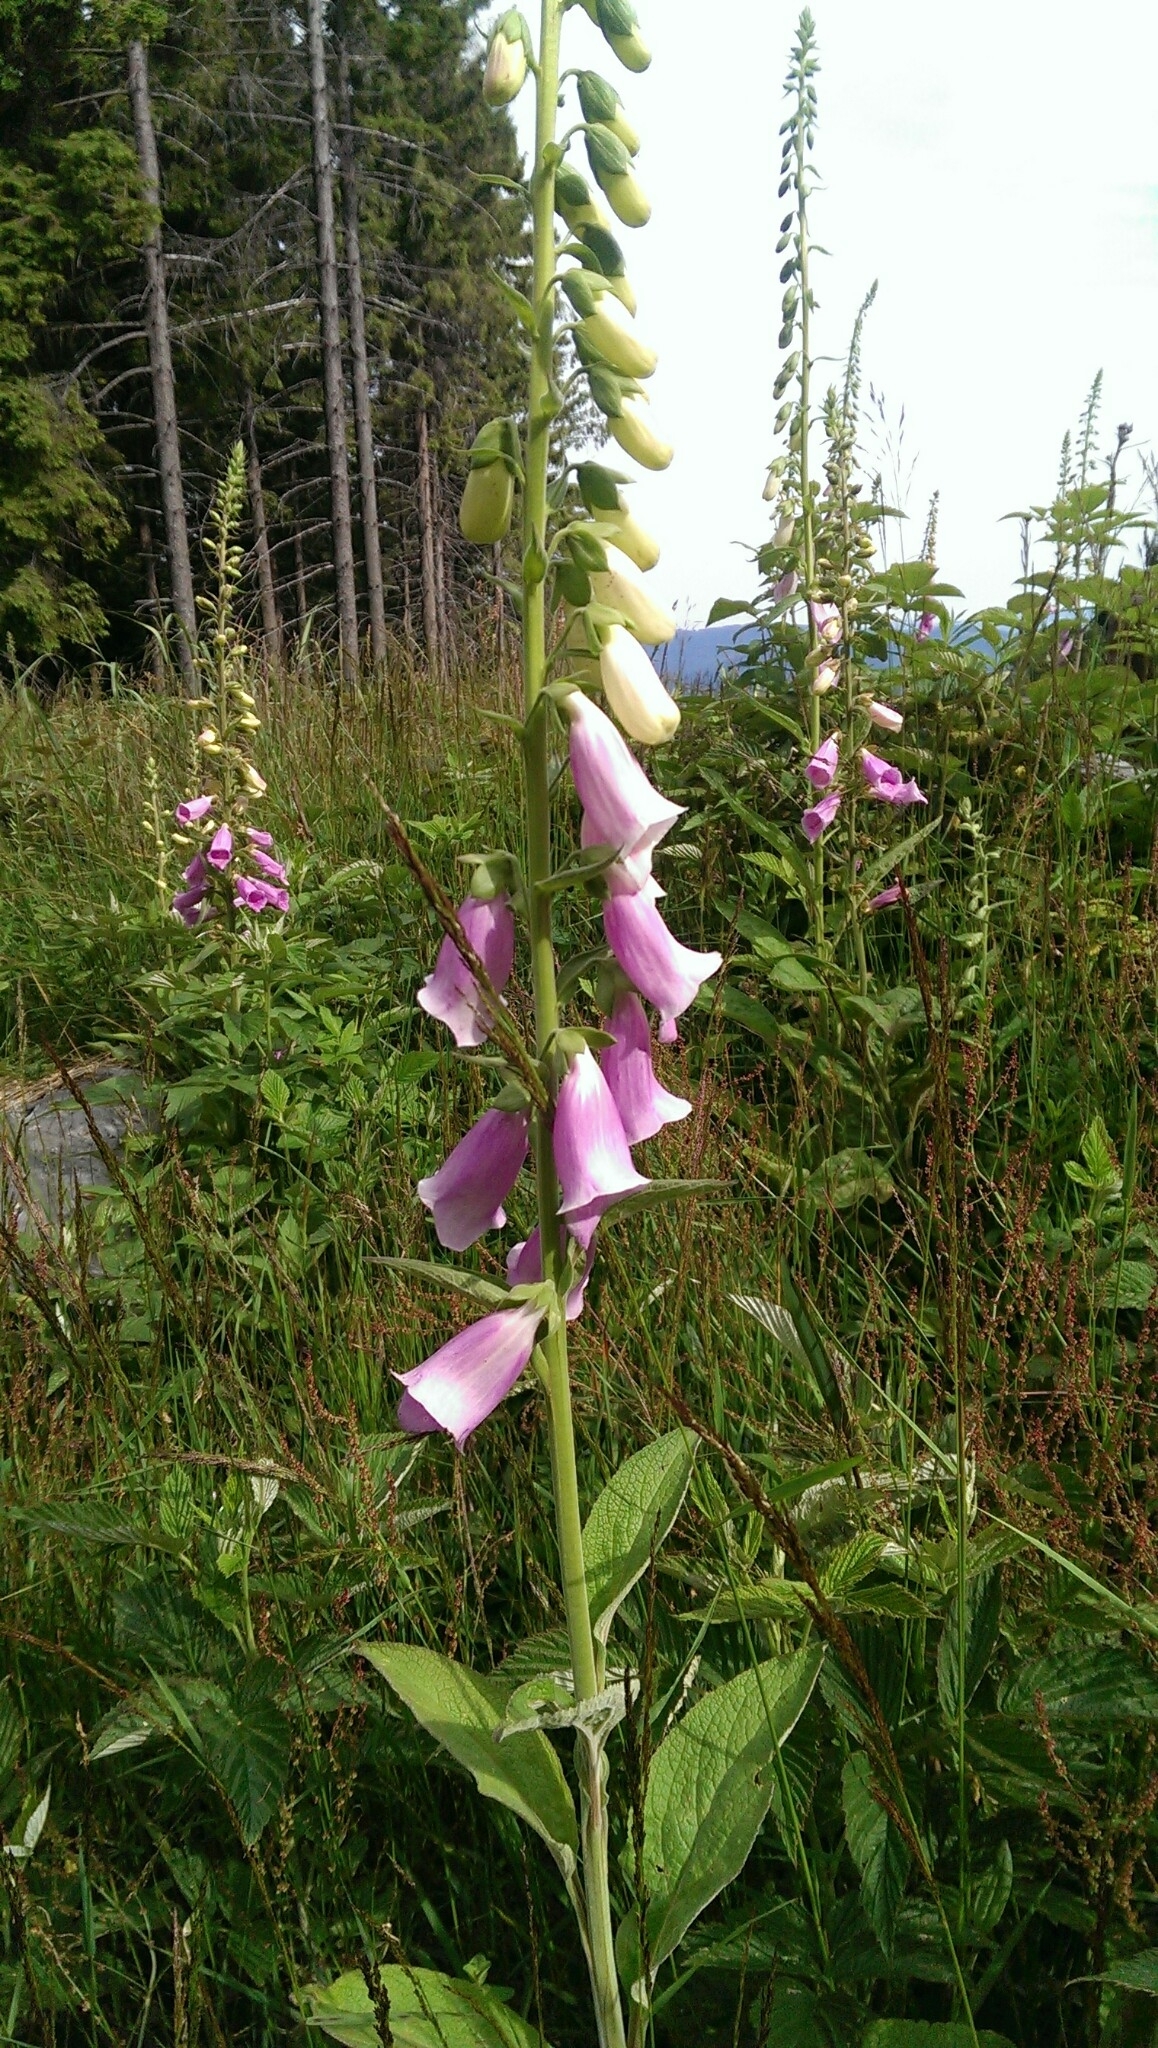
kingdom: Plantae
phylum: Tracheophyta
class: Magnoliopsida
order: Lamiales
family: Plantaginaceae
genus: Digitalis
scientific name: Digitalis purpurea
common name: Foxglove
